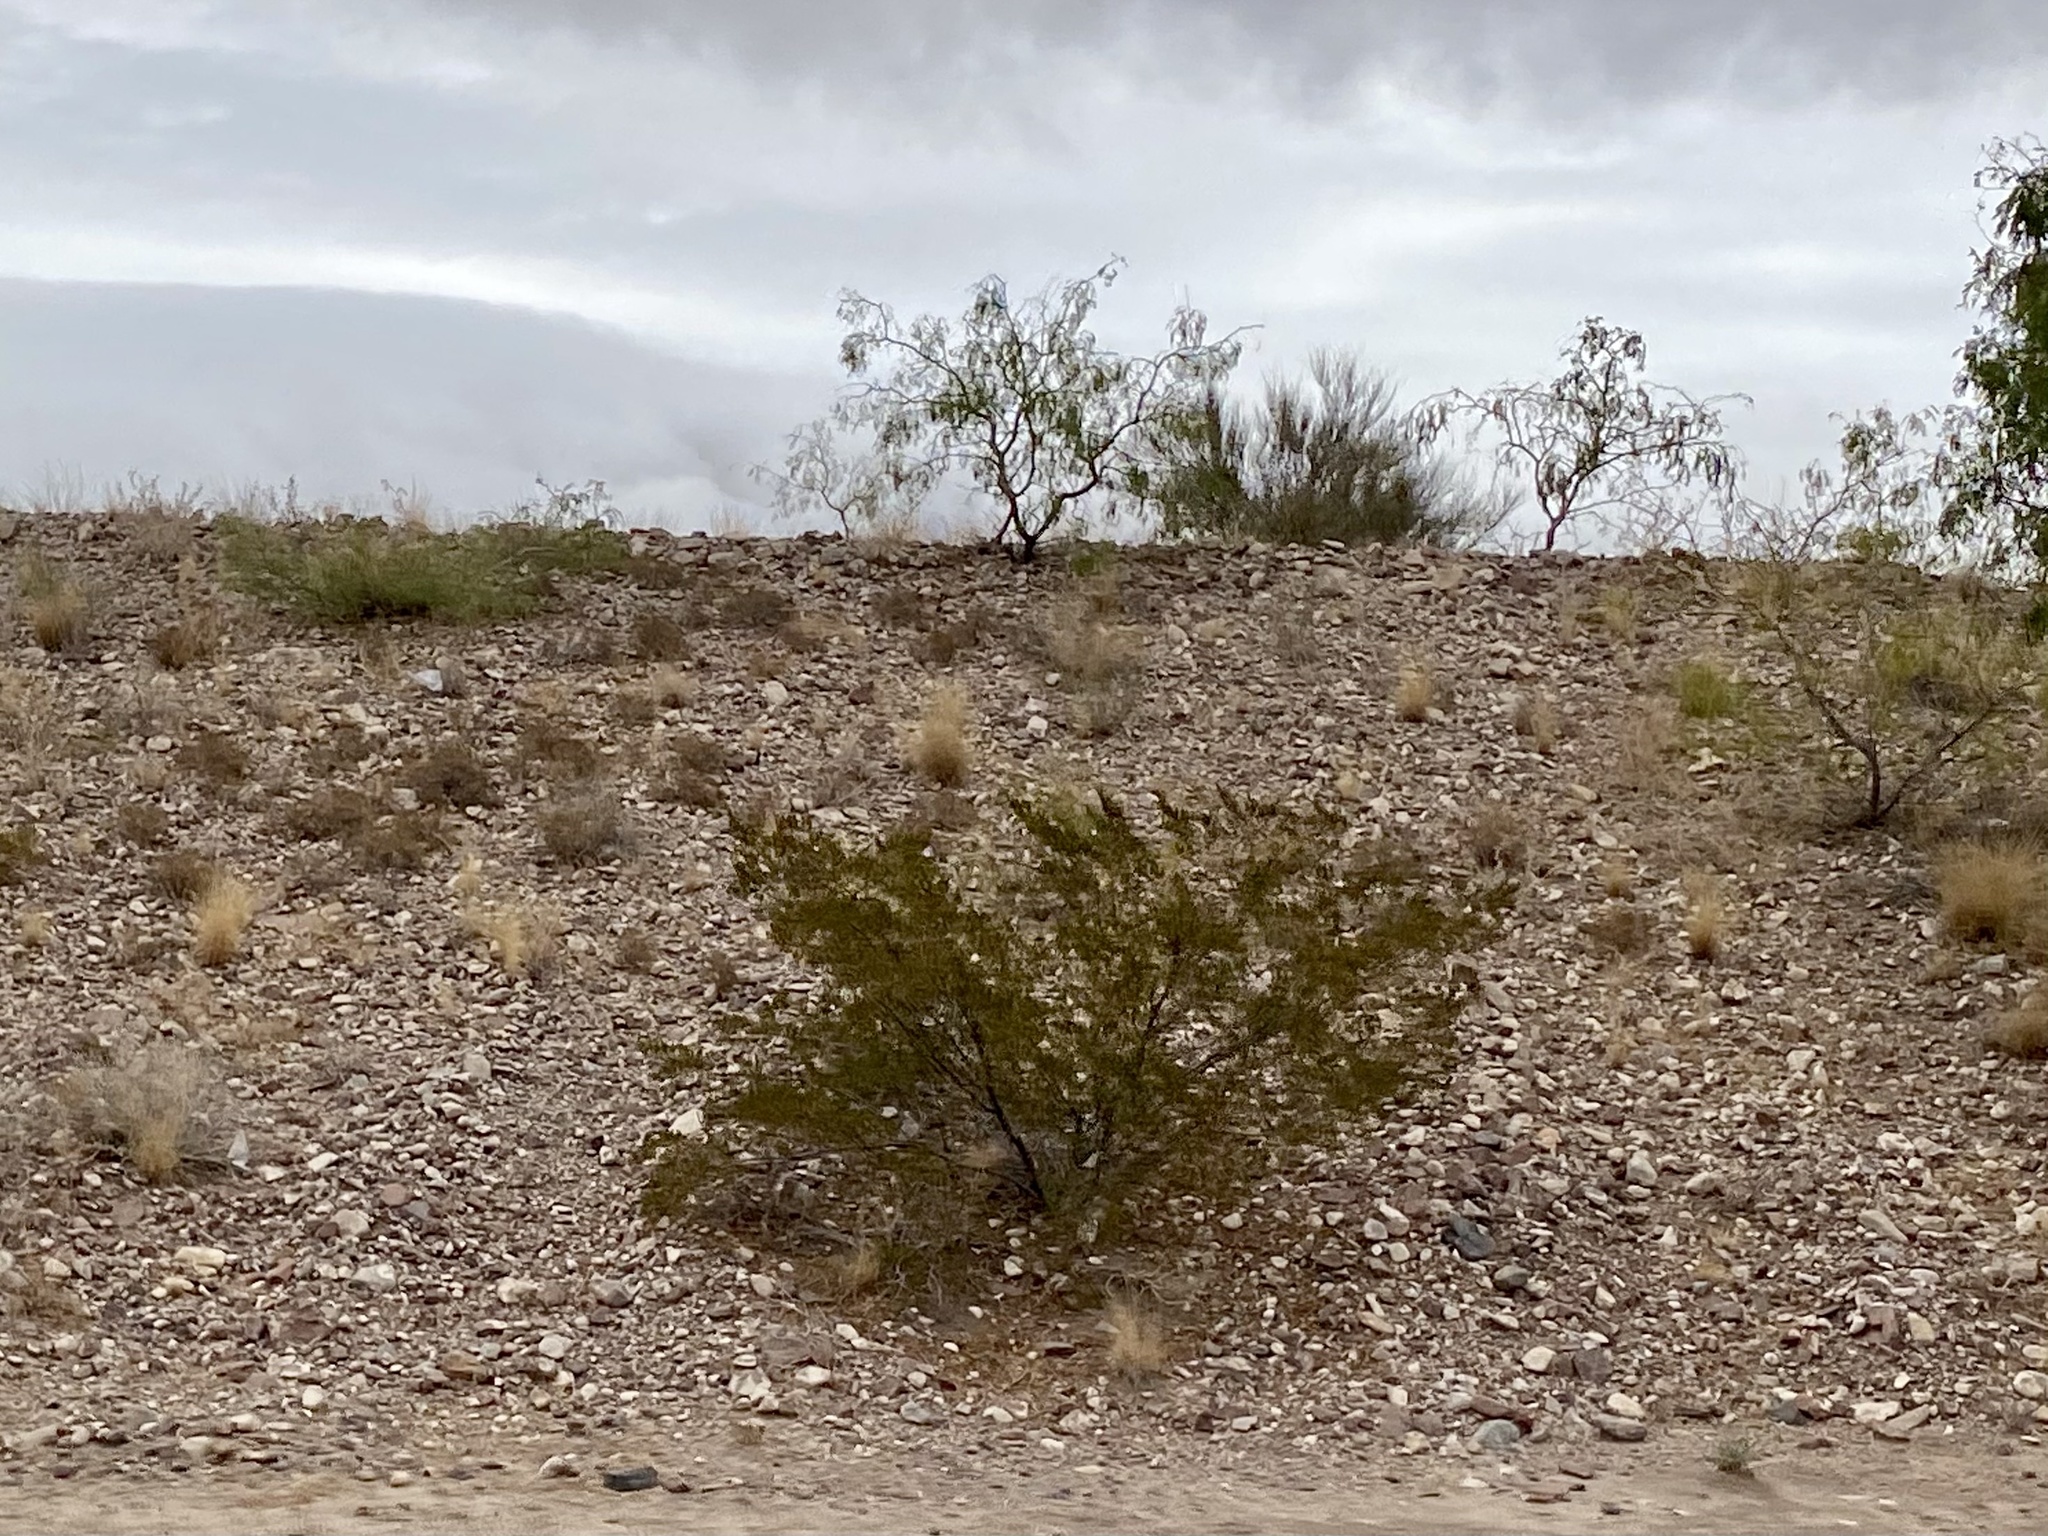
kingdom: Plantae
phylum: Tracheophyta
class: Magnoliopsida
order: Zygophyllales
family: Zygophyllaceae
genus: Larrea
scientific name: Larrea tridentata
